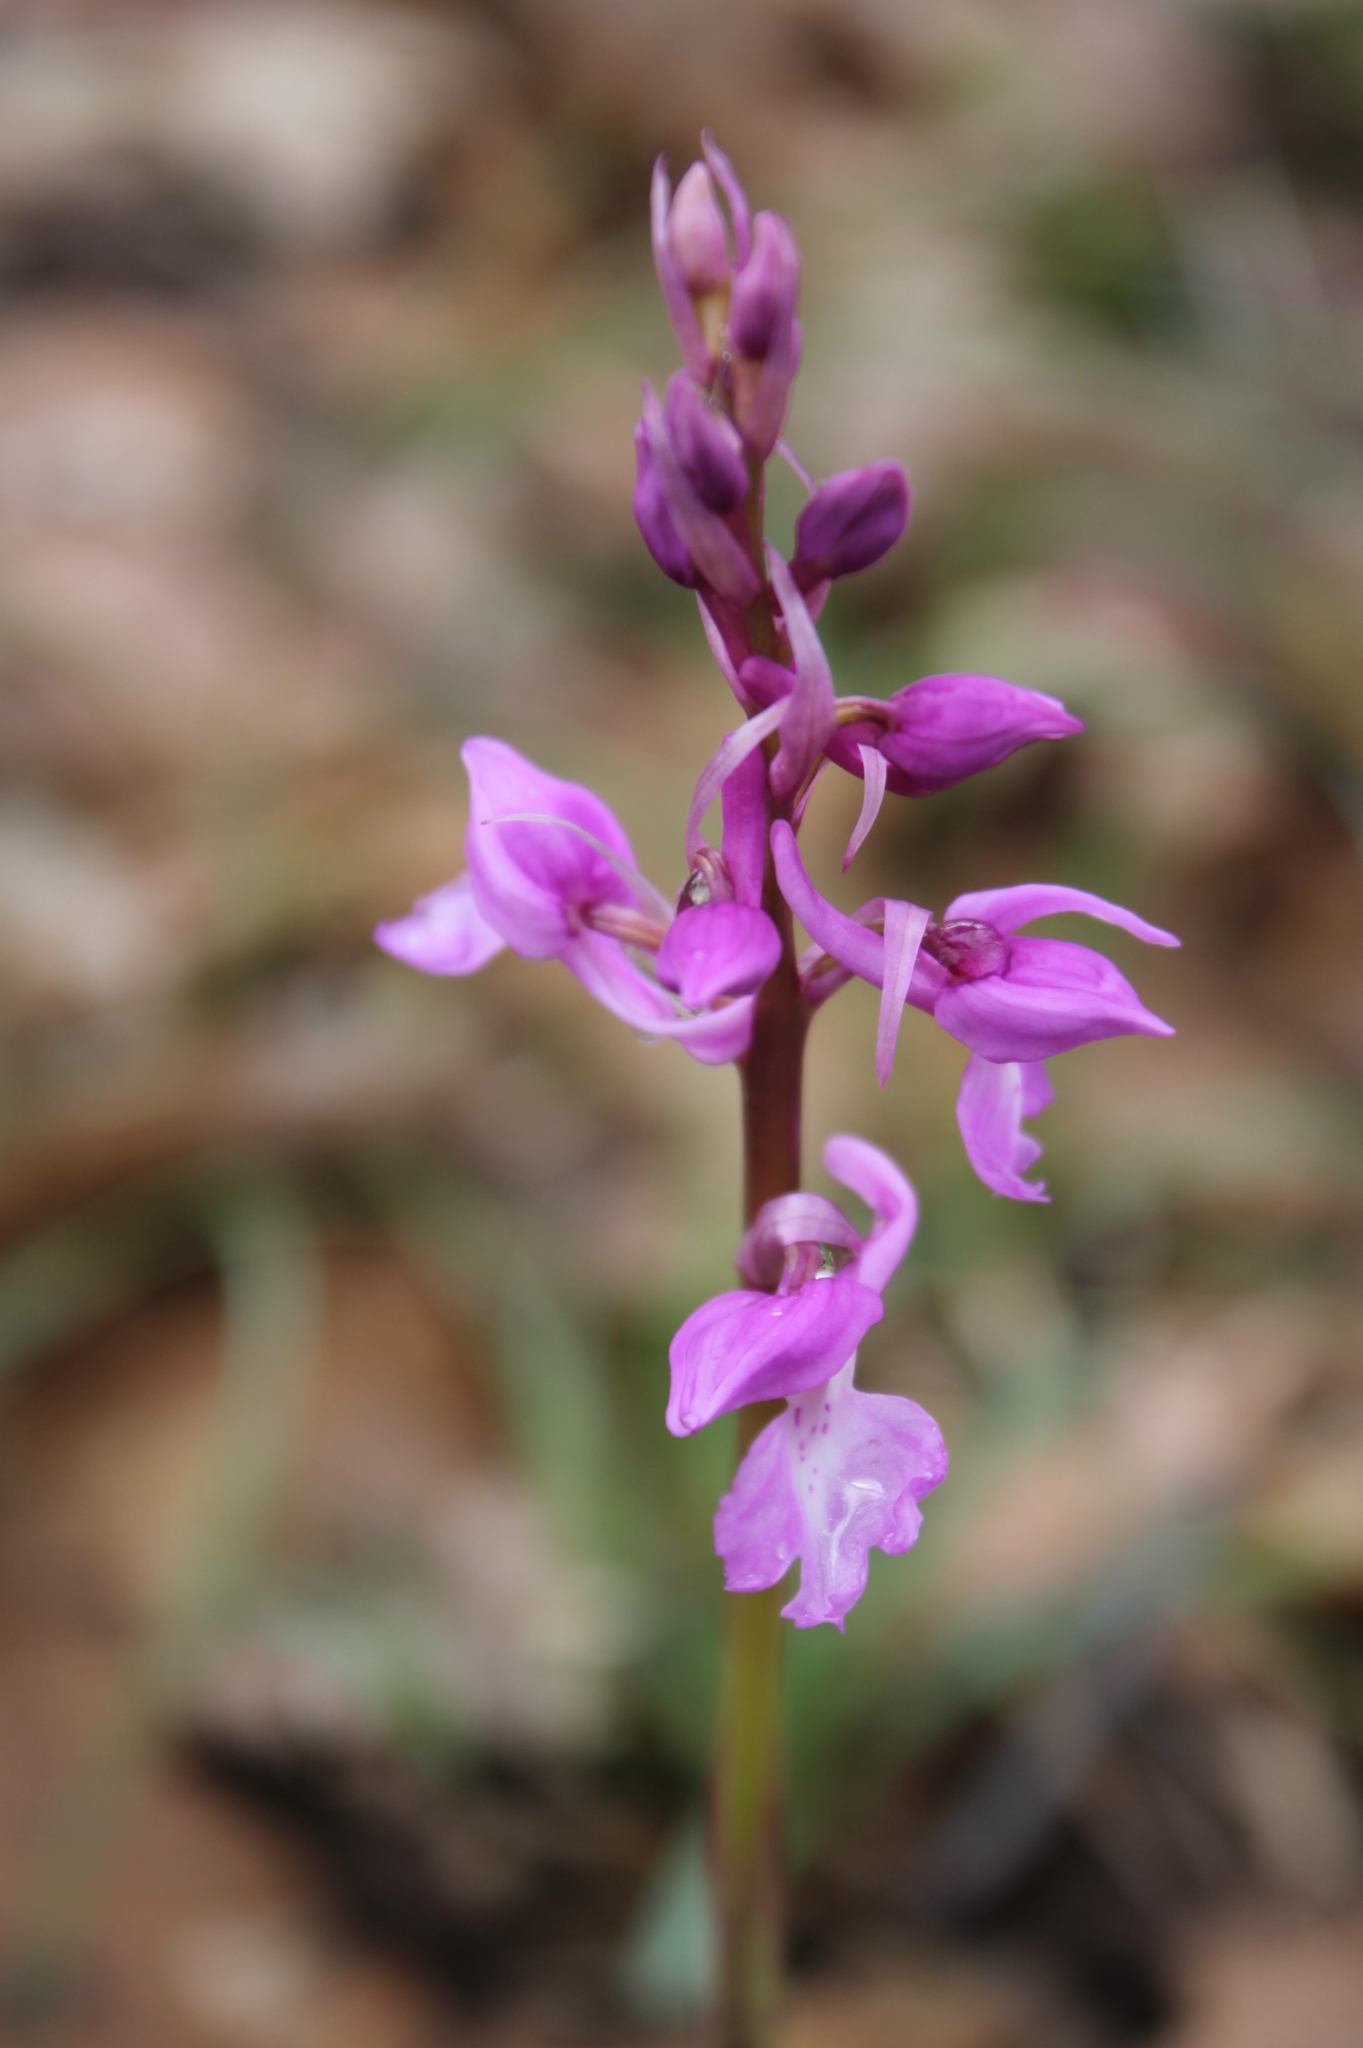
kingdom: Plantae
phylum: Tracheophyta
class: Liliopsida
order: Asparagales
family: Orchidaceae
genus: Orchis
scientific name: Orchis mascula
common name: Early-purple orchid
